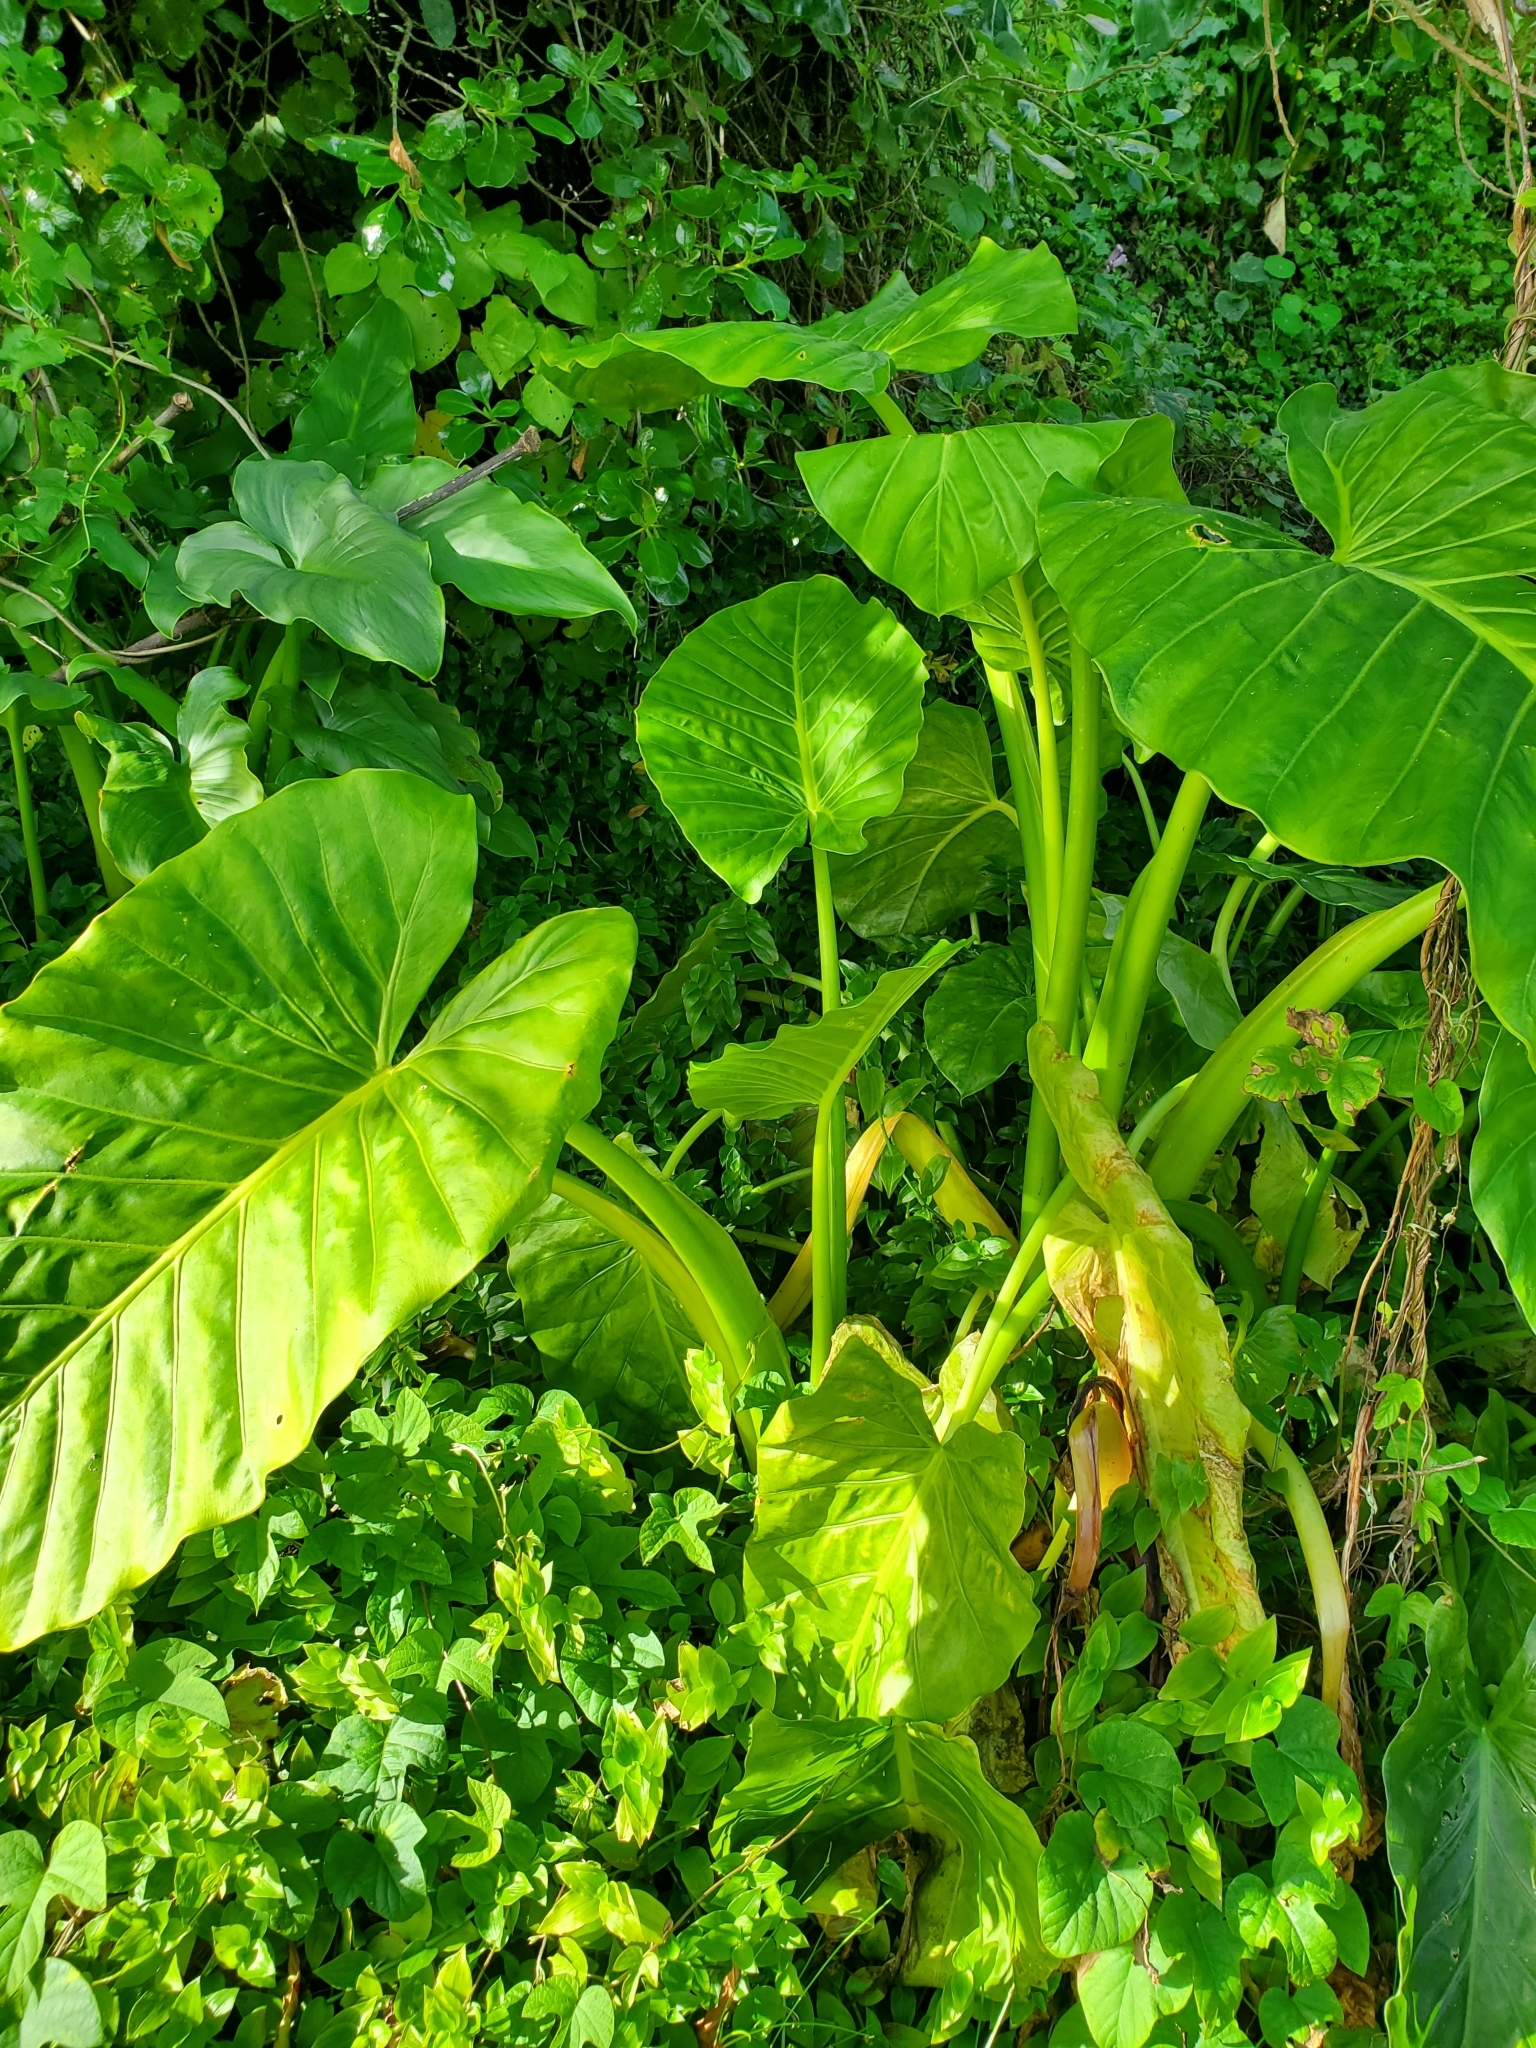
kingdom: Plantae
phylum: Tracheophyta
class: Liliopsida
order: Alismatales
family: Araceae
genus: Alocasia
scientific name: Alocasia brisbanensis
